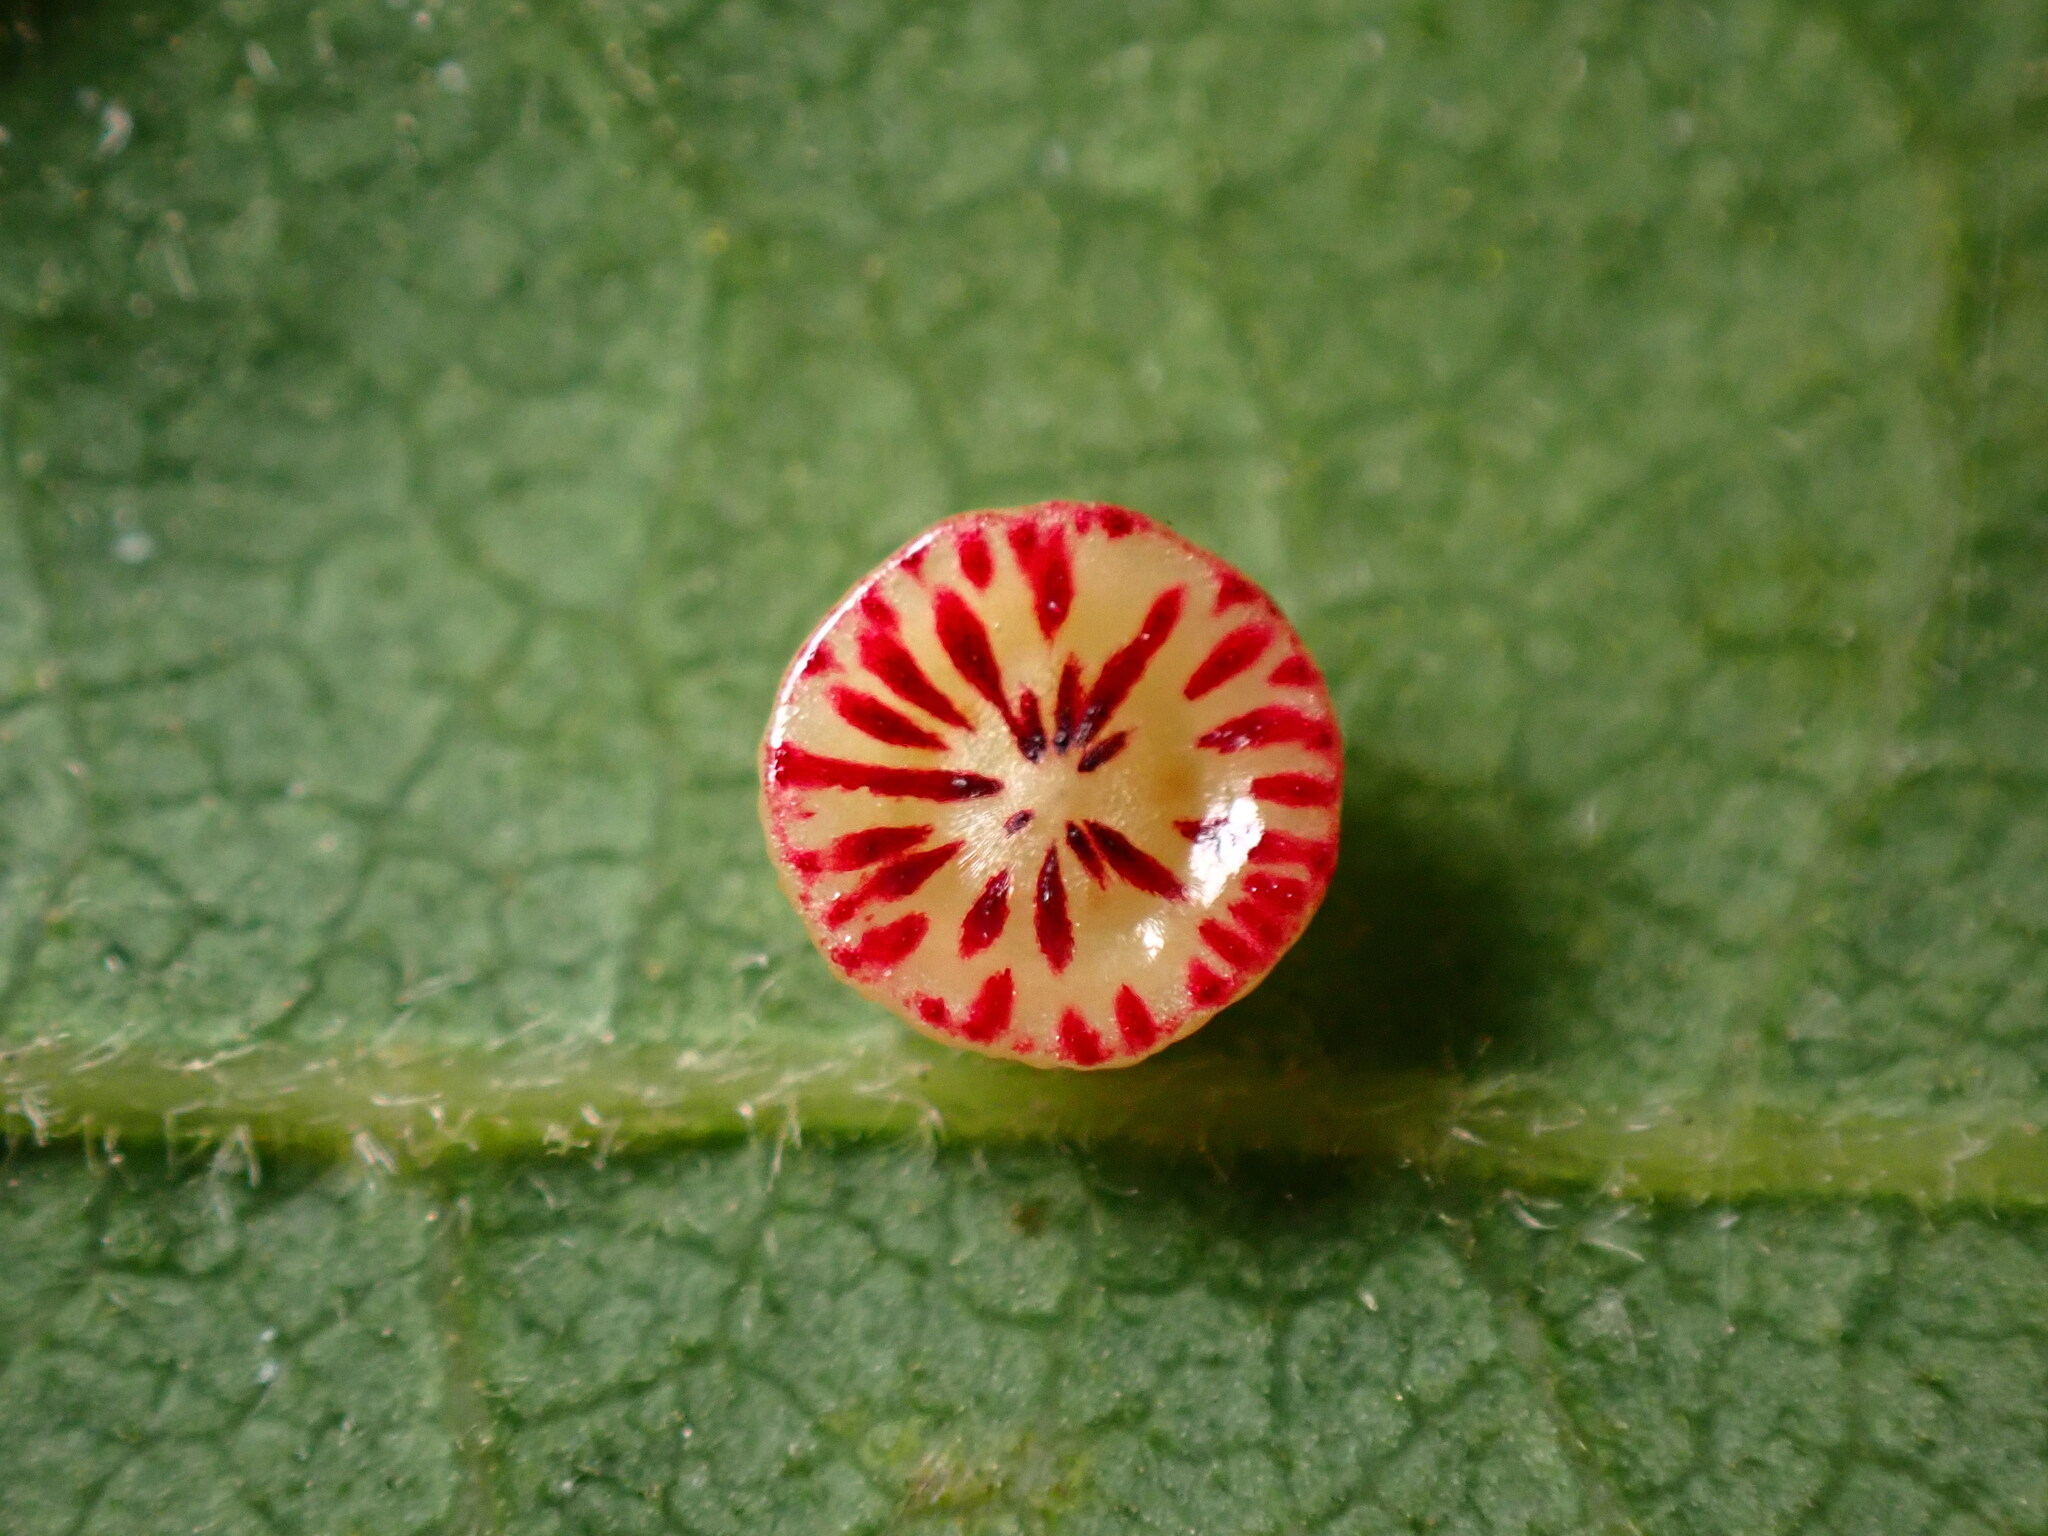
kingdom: Animalia
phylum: Arthropoda
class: Insecta
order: Hymenoptera
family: Cynipidae
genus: Andricus
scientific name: Andricus
